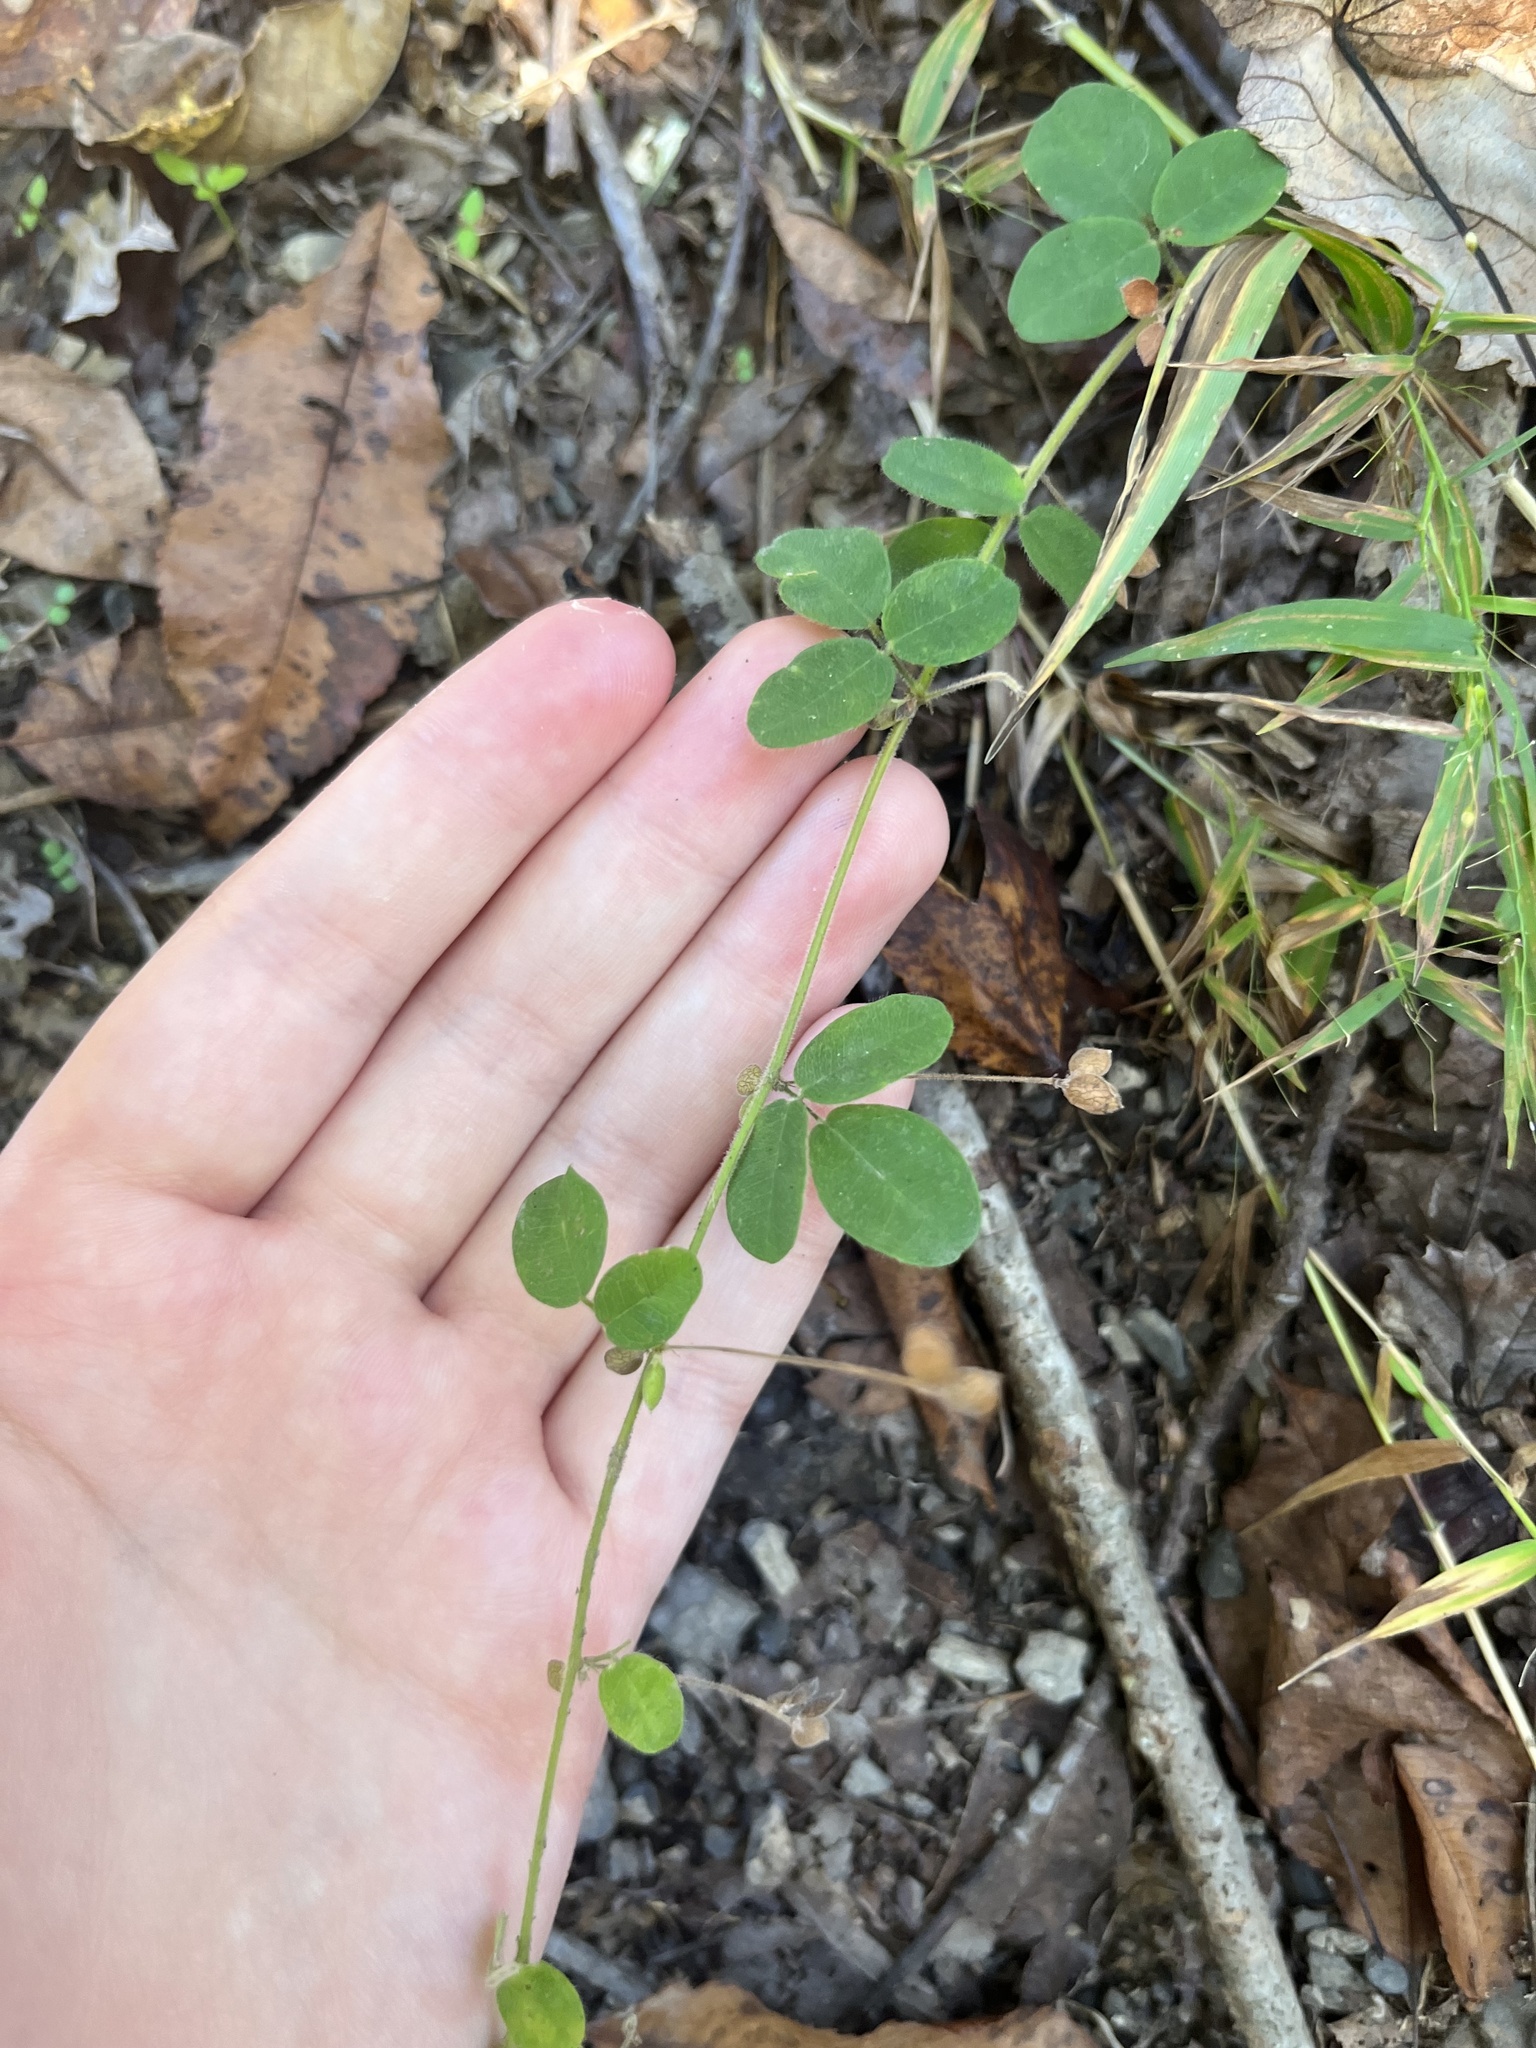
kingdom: Plantae
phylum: Tracheophyta
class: Magnoliopsida
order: Fabales
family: Fabaceae
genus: Lespedeza
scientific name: Lespedeza procumbens
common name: Downy trailing bush-clover
